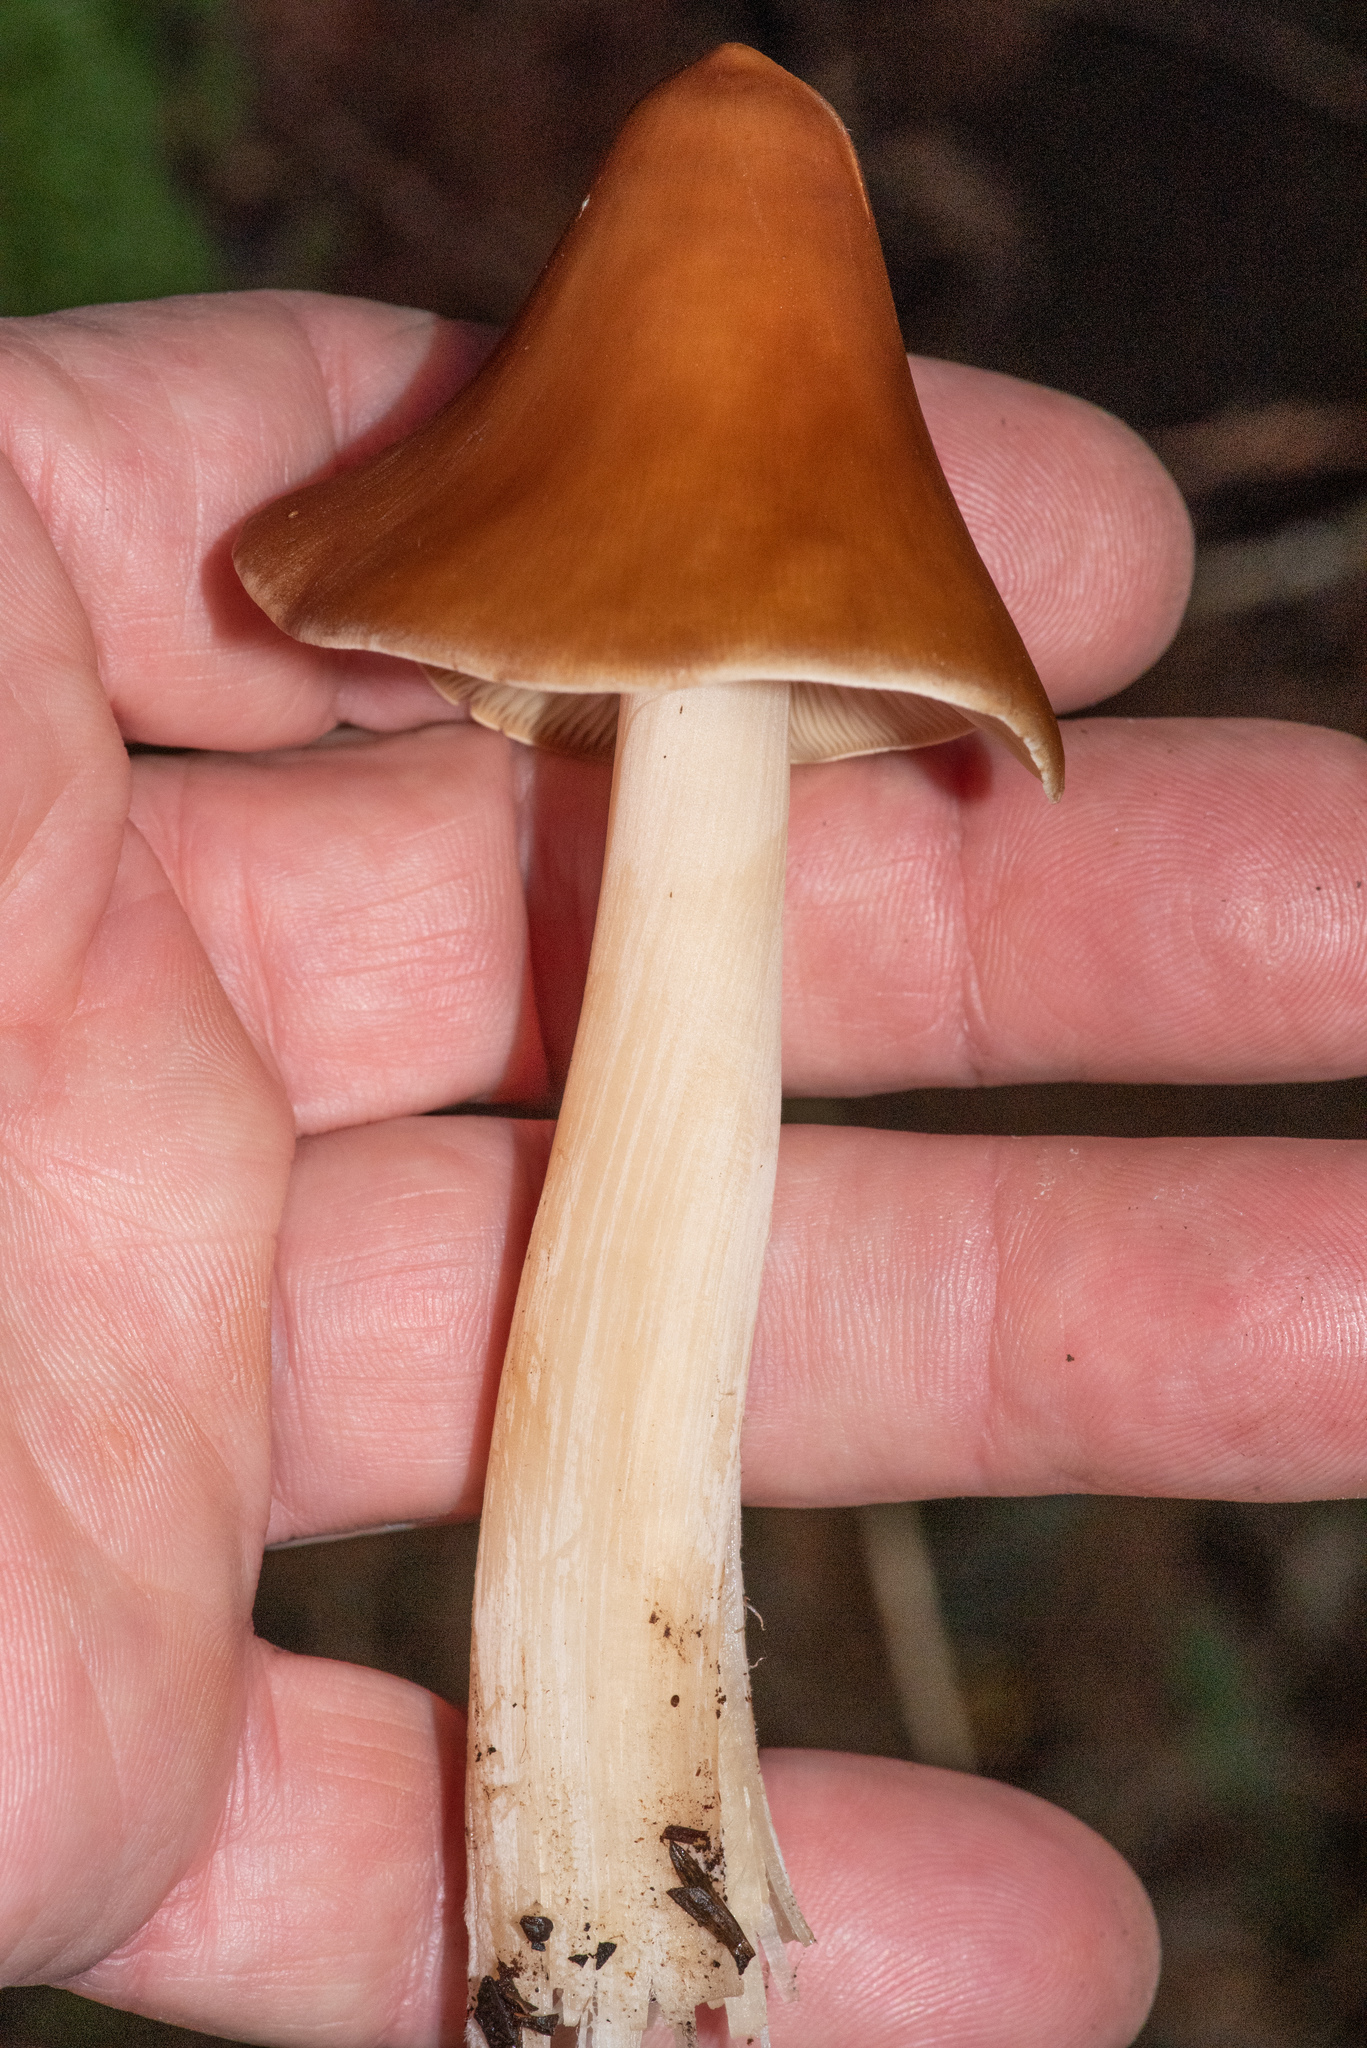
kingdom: Fungi
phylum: Basidiomycota
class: Agaricomycetes
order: Agaricales
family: Tricholomataceae
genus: Caulorhiza
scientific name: Caulorhiza umbonata
